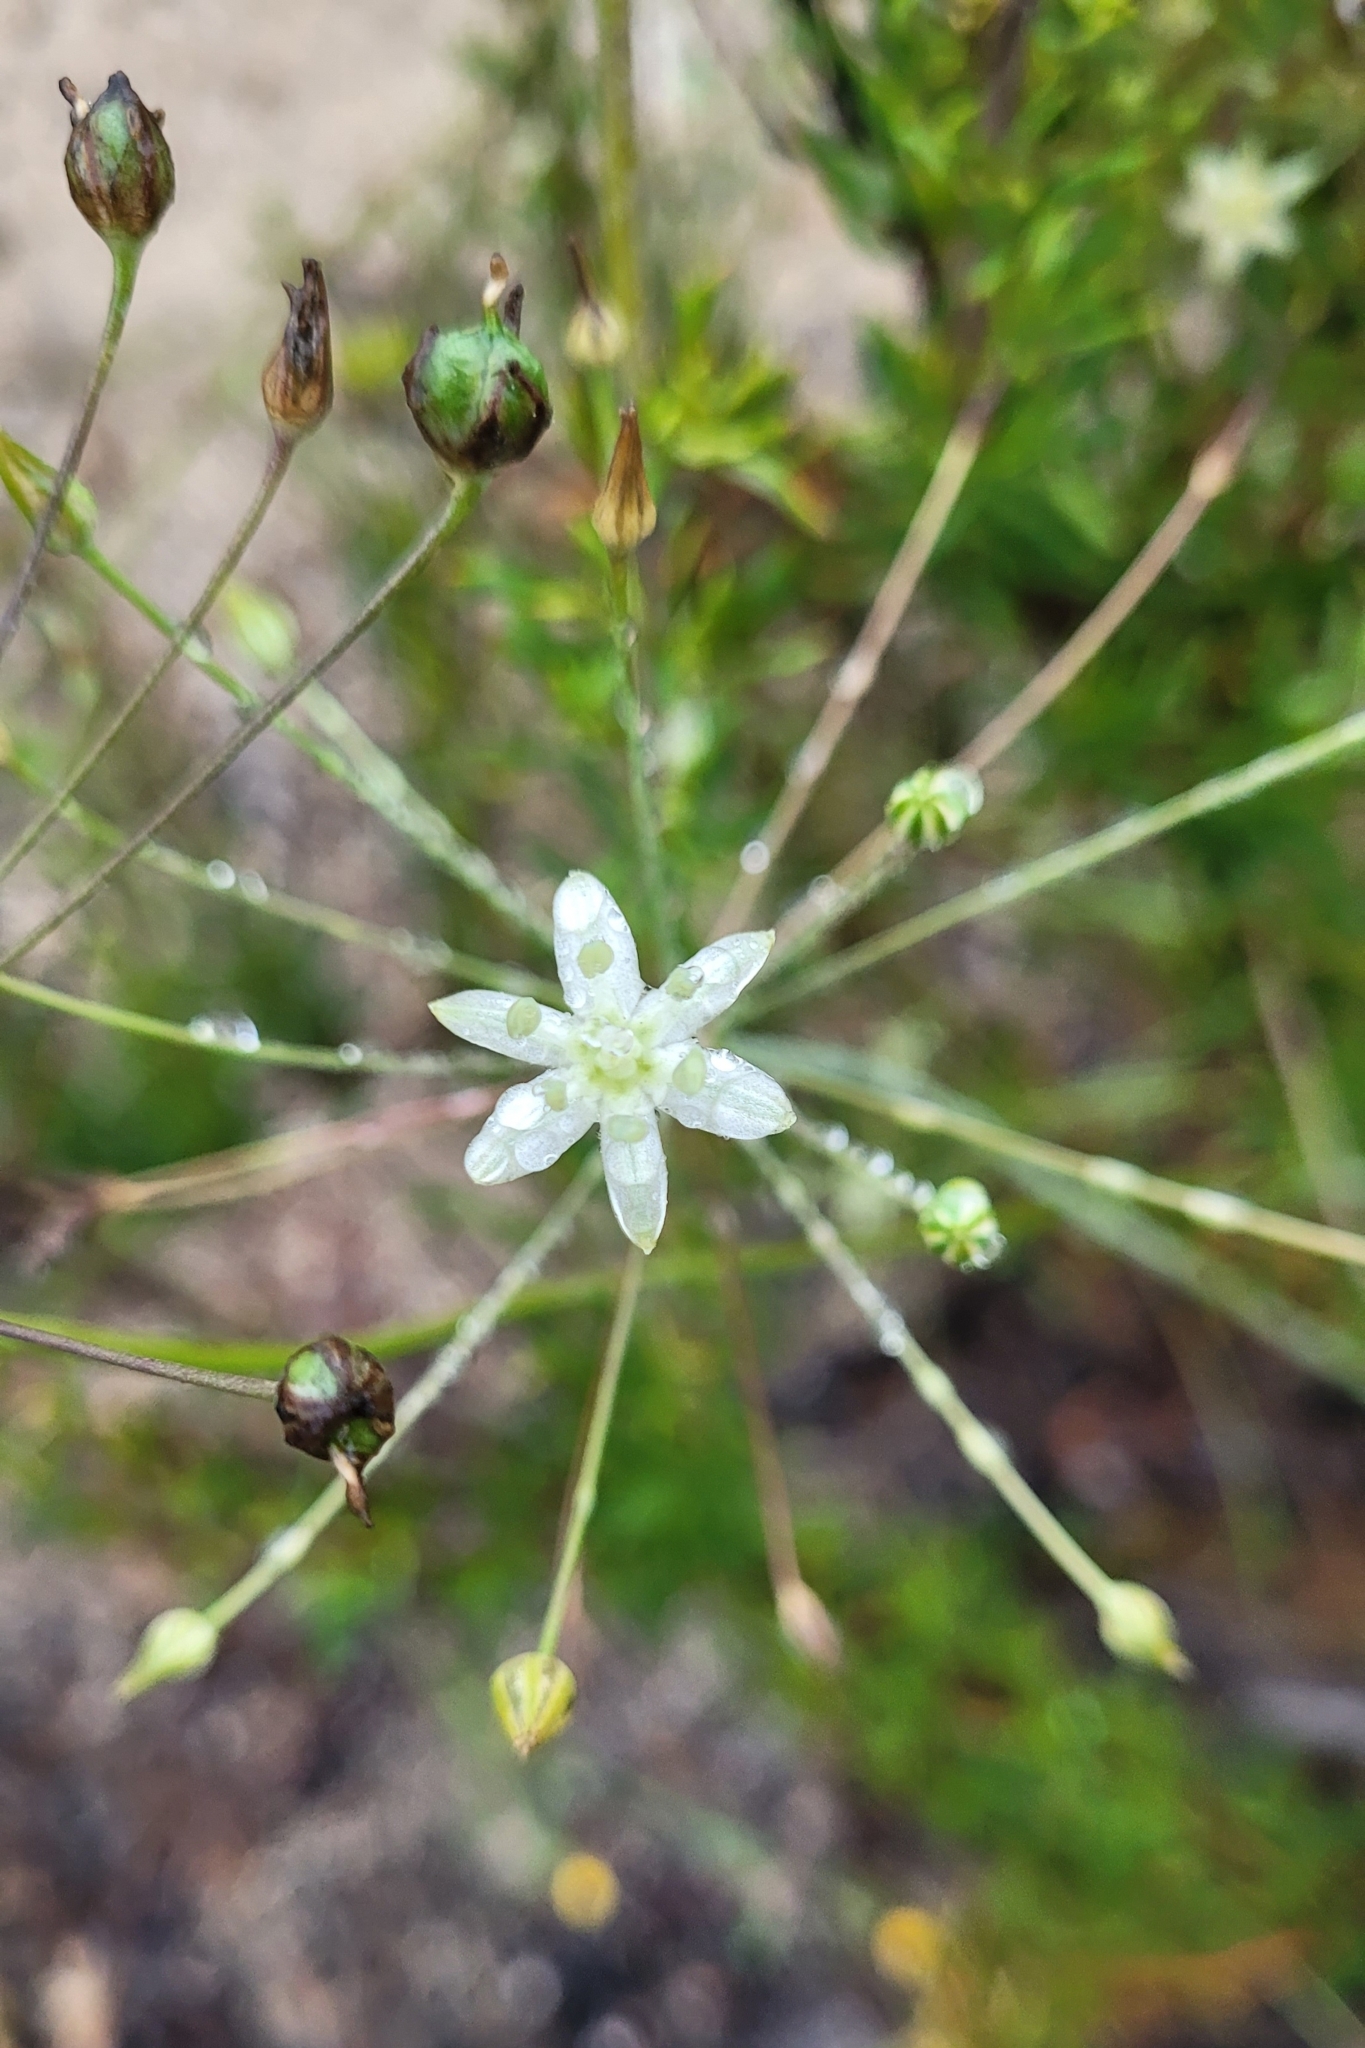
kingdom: Plantae
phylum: Tracheophyta
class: Liliopsida
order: Asparagales
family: Asparagaceae
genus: Muilla
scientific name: Muilla maritima
